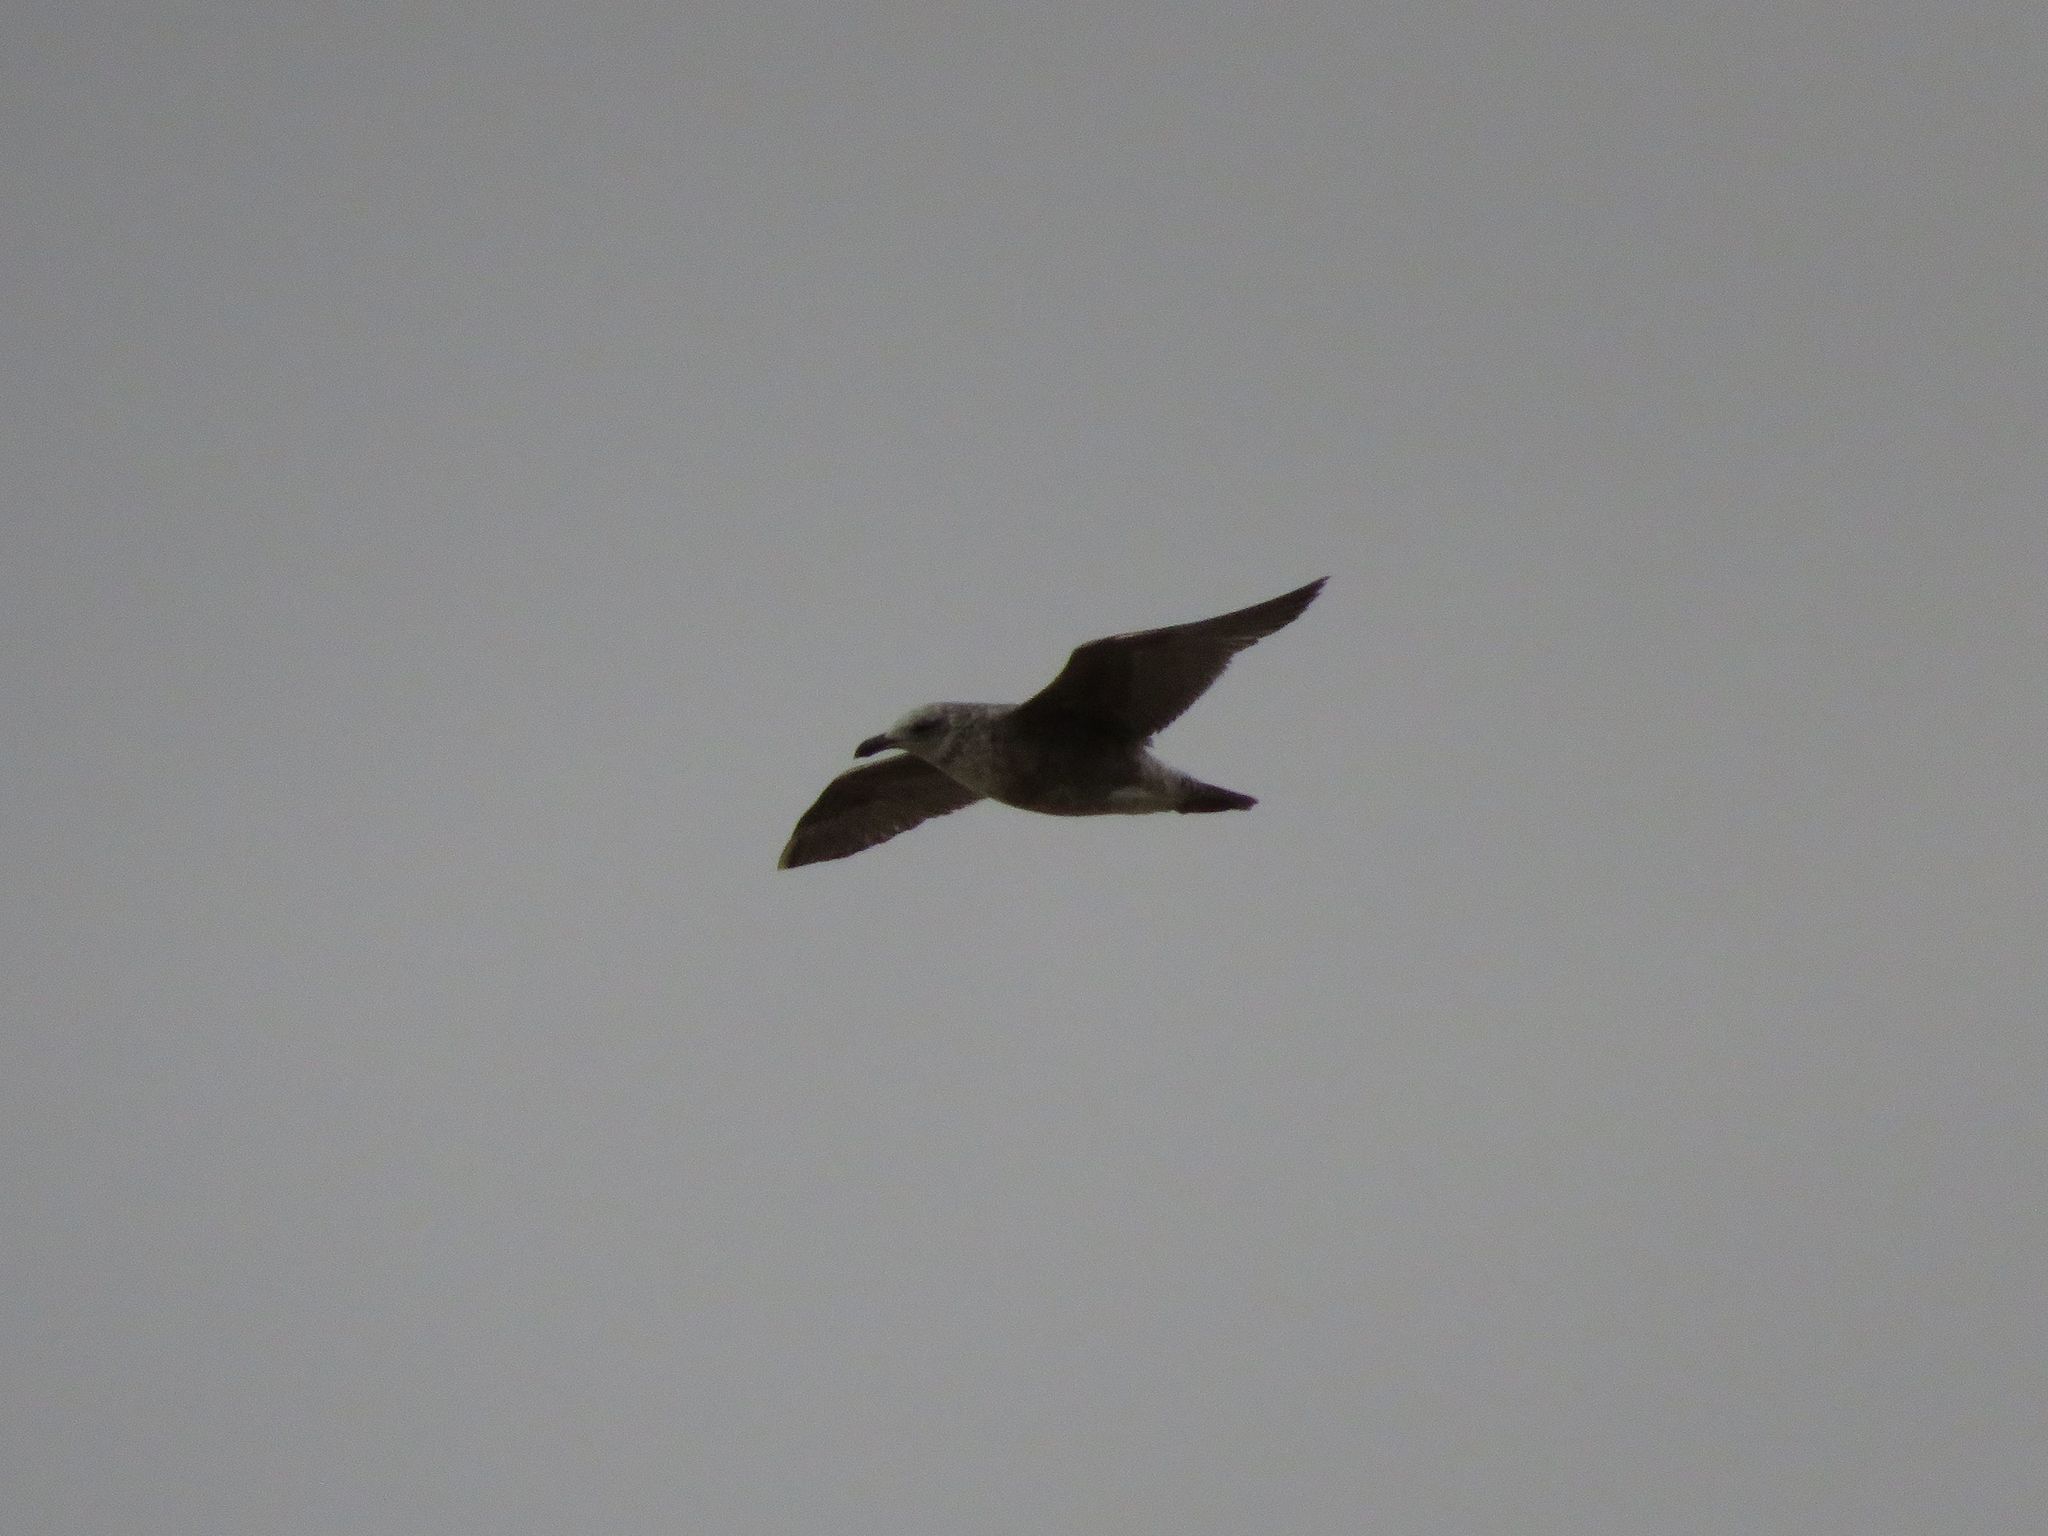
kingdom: Animalia
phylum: Chordata
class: Aves
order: Charadriiformes
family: Laridae
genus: Larus
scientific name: Larus dominicanus
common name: Kelp gull
